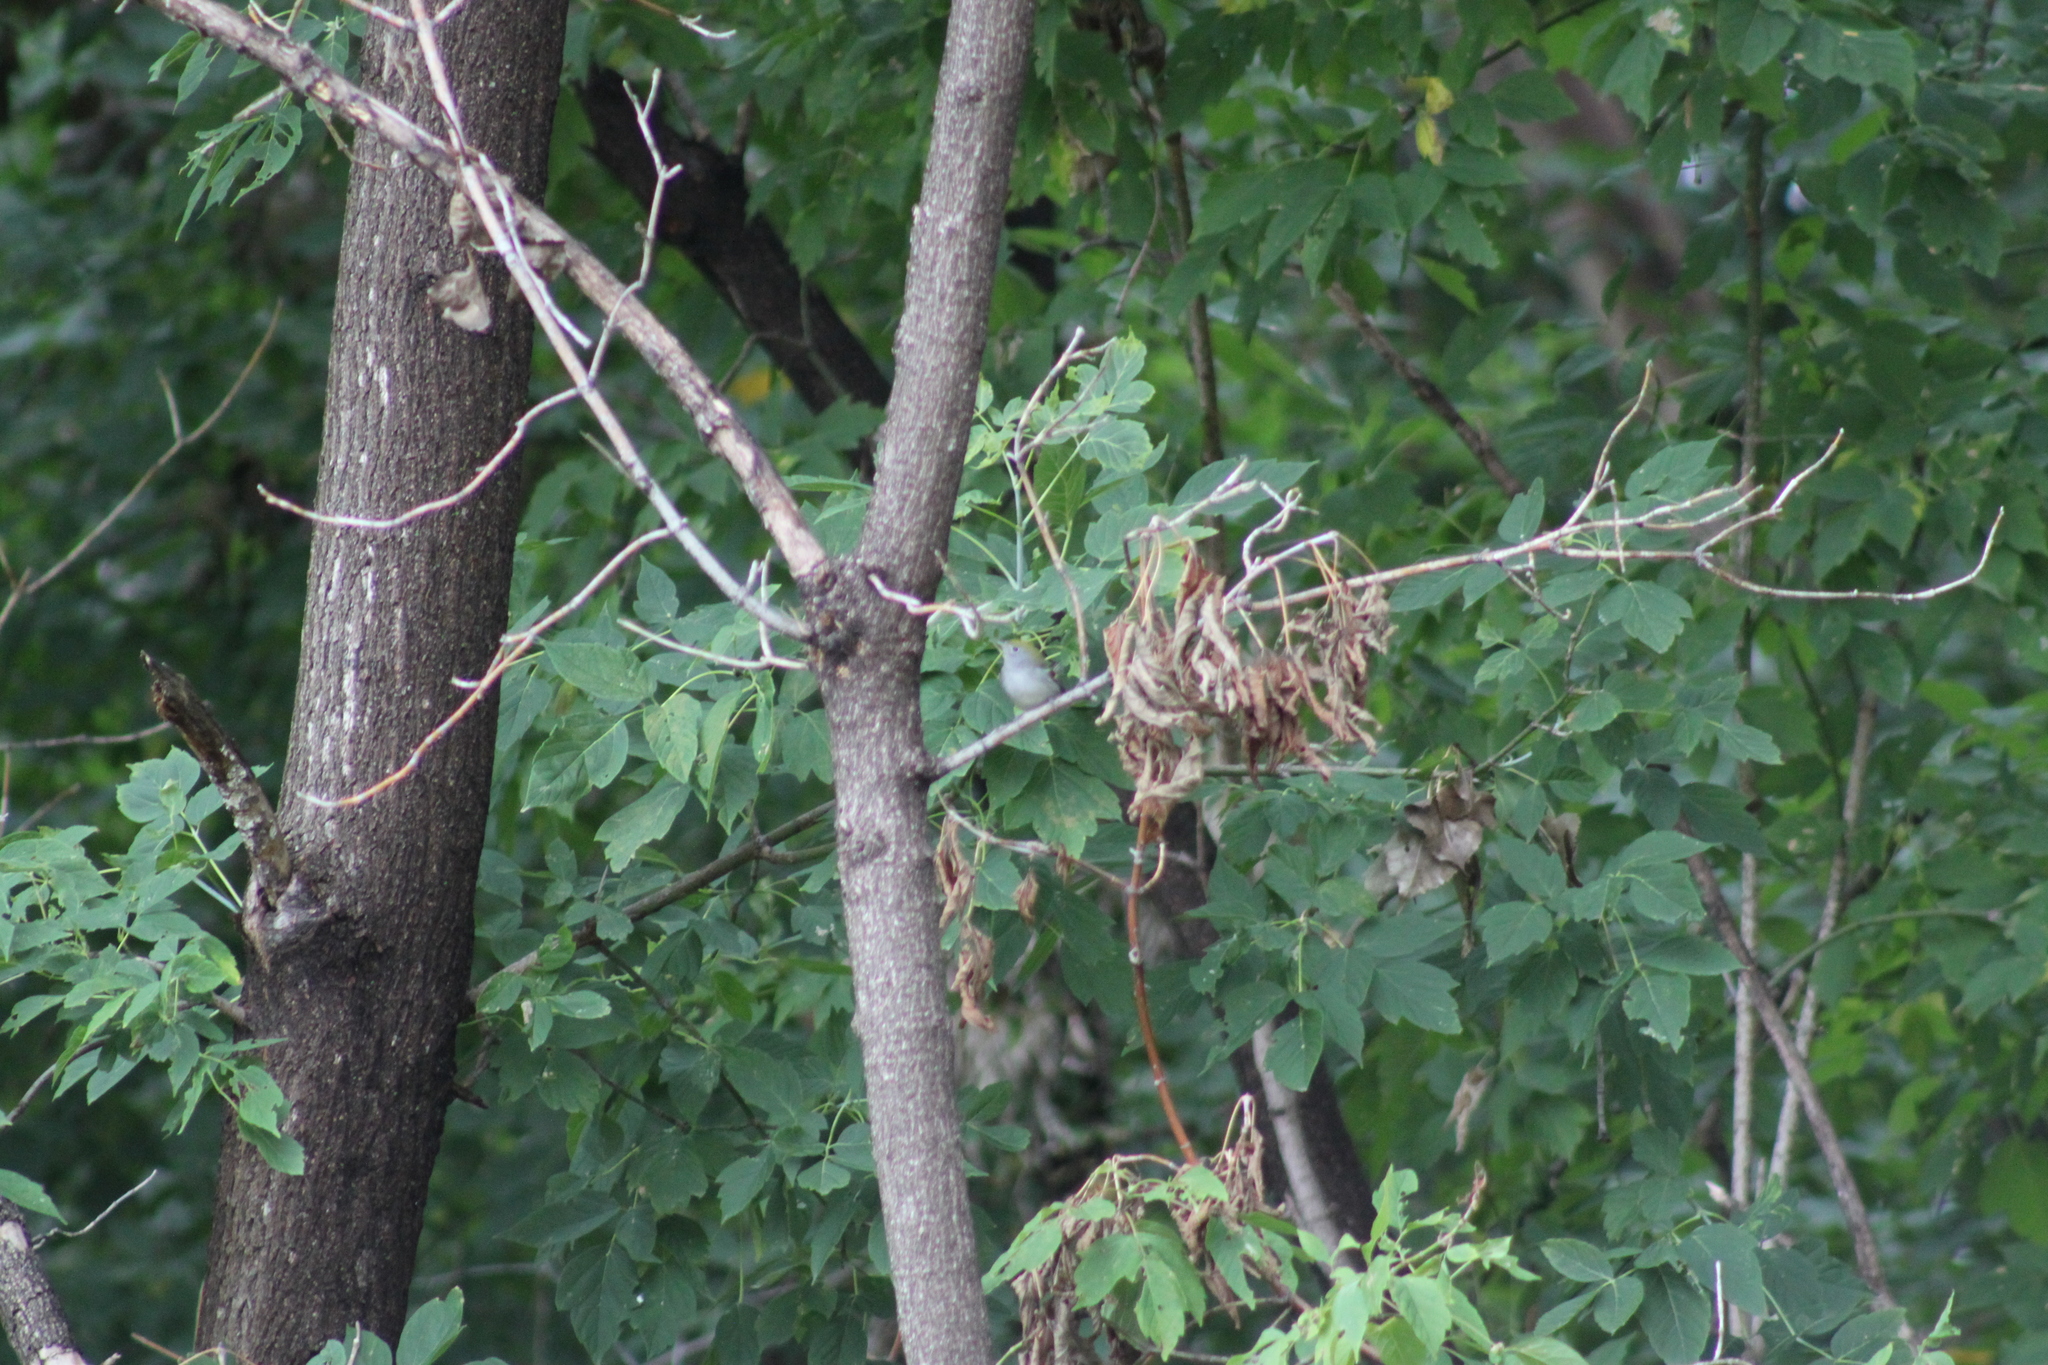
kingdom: Animalia
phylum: Chordata
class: Aves
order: Passeriformes
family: Parulidae
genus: Setophaga
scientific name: Setophaga pensylvanica
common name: Chestnut-sided warbler
